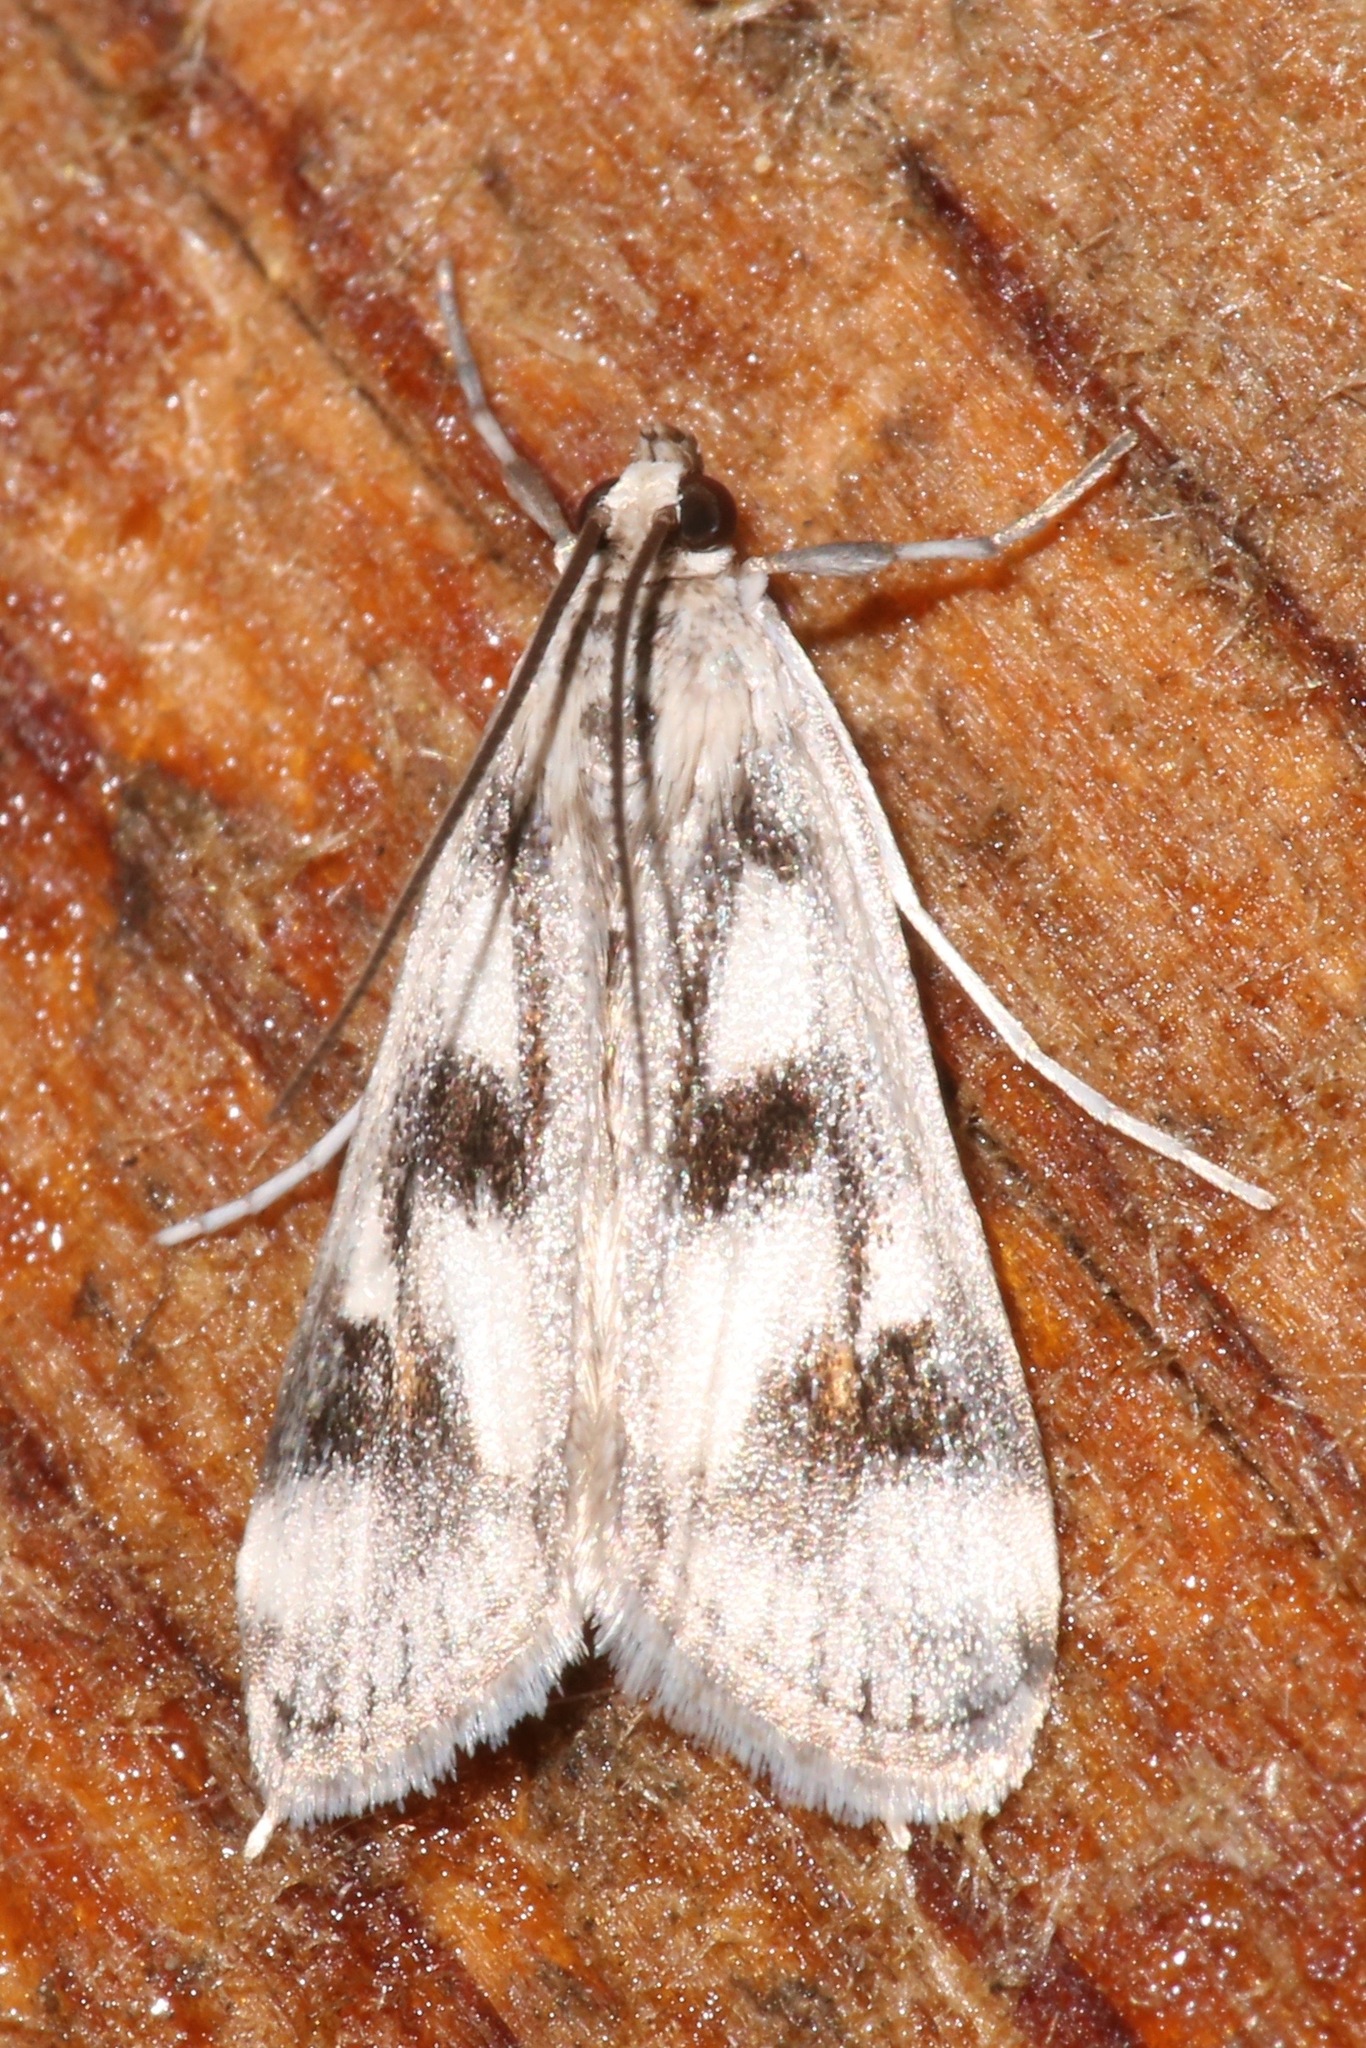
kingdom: Animalia
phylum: Arthropoda
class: Insecta
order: Lepidoptera
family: Crambidae
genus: Parapoynx
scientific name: Parapoynx maculalis
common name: Polymorphic pondweed moth
